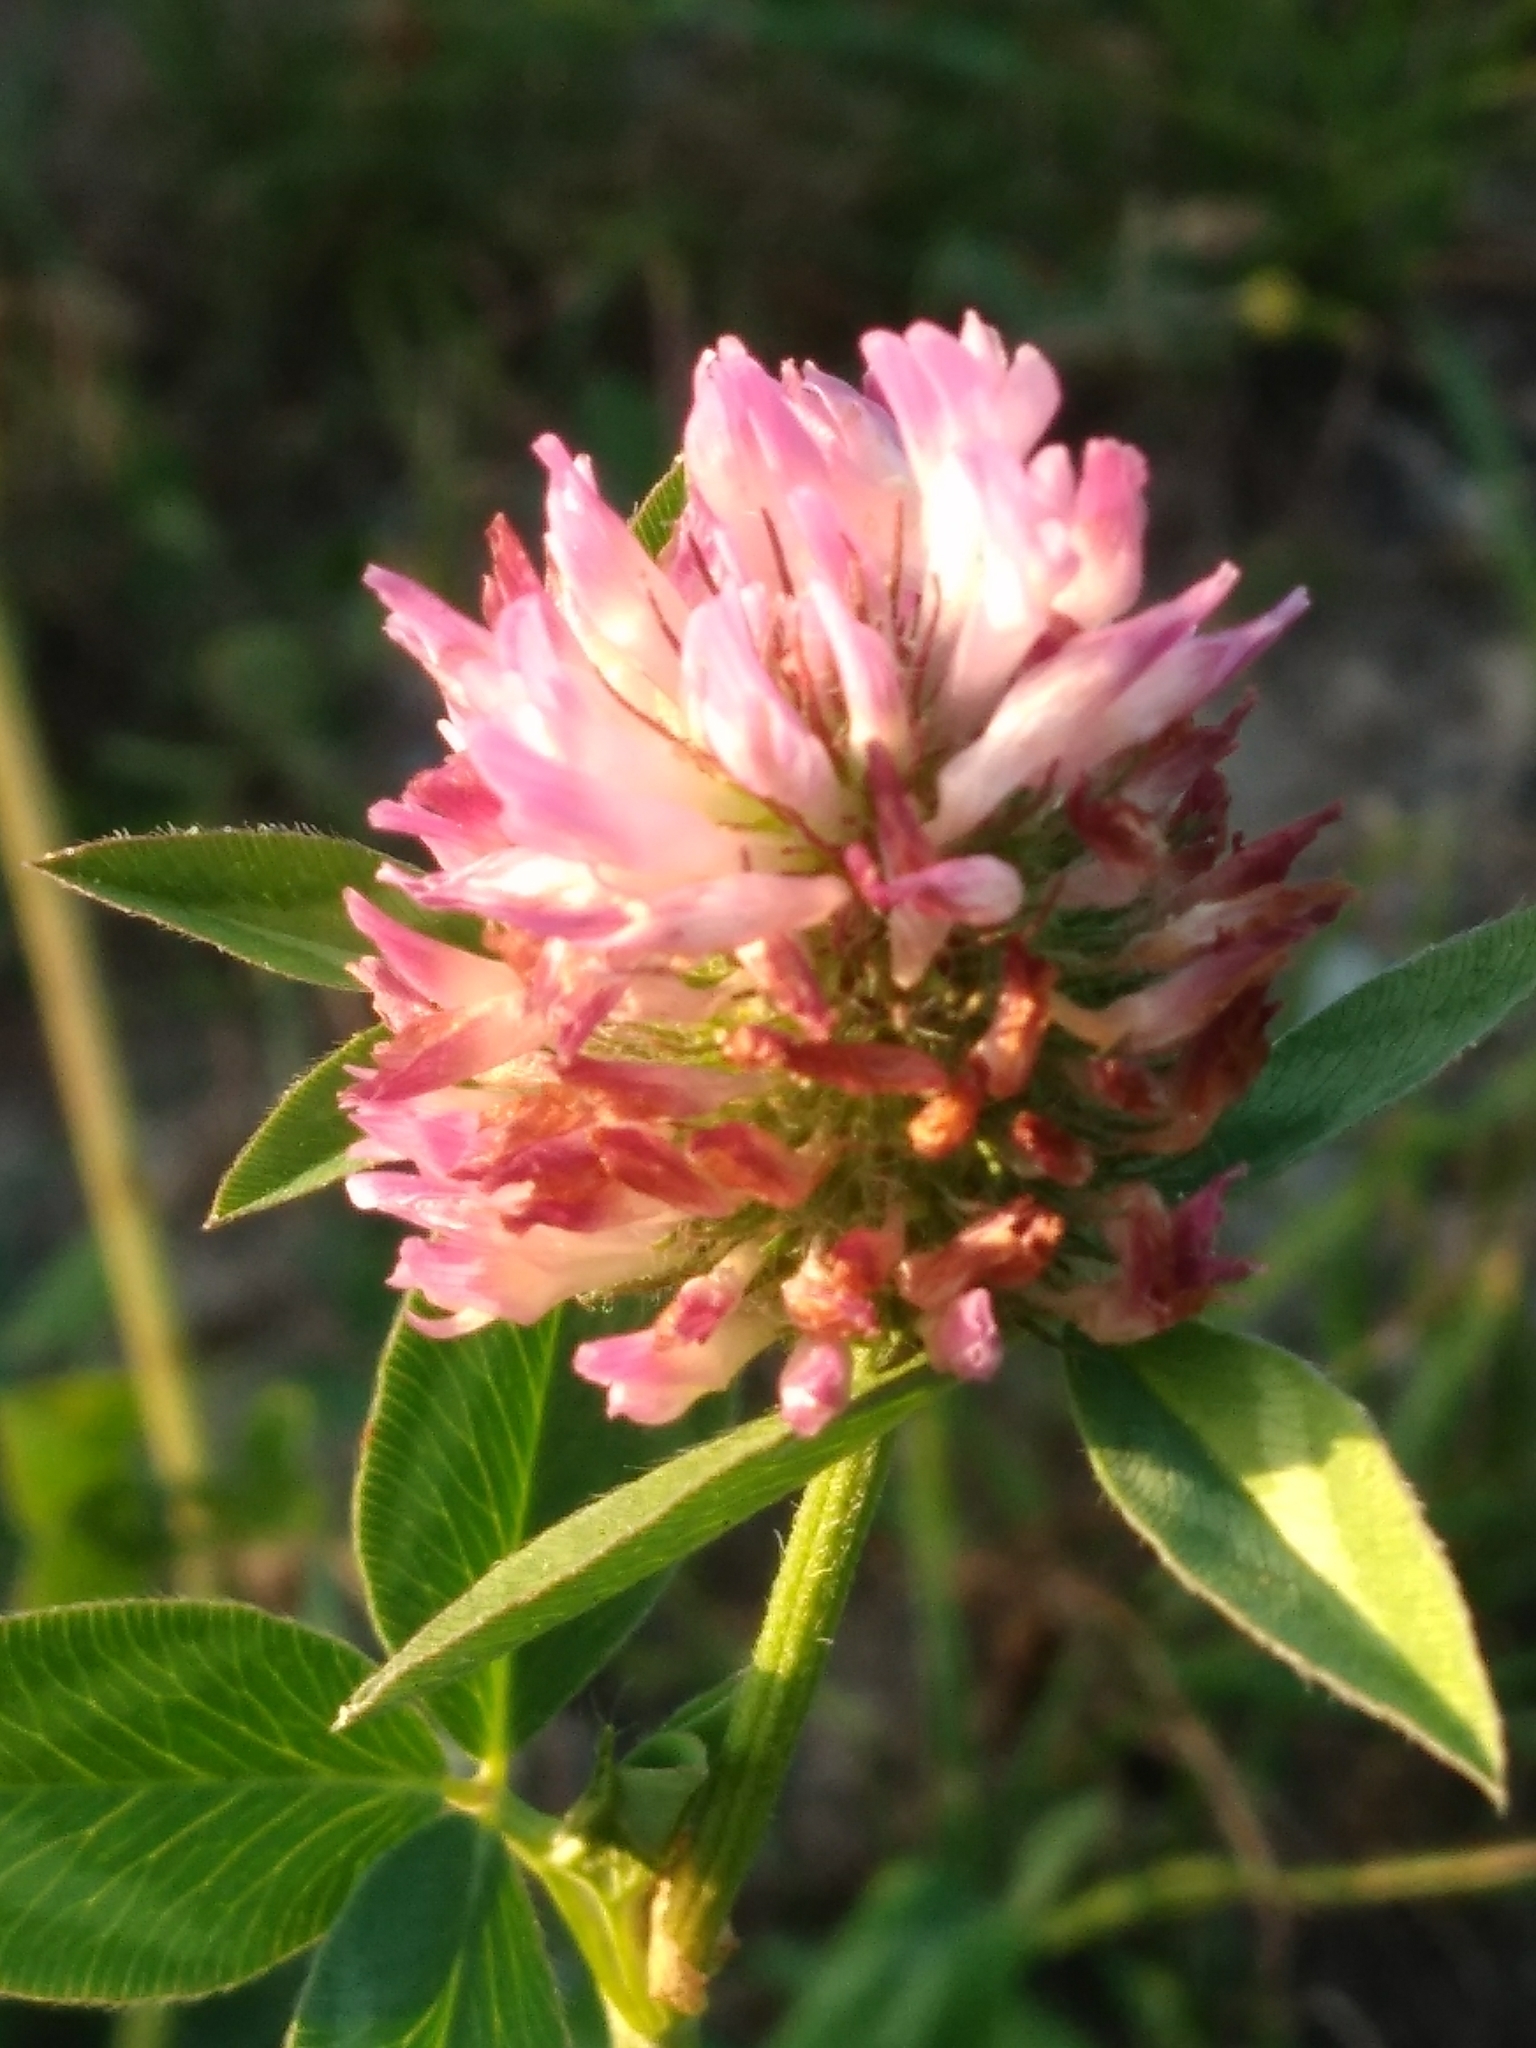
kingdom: Plantae
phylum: Tracheophyta
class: Magnoliopsida
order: Fabales
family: Fabaceae
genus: Trifolium
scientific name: Trifolium pratense
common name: Red clover
